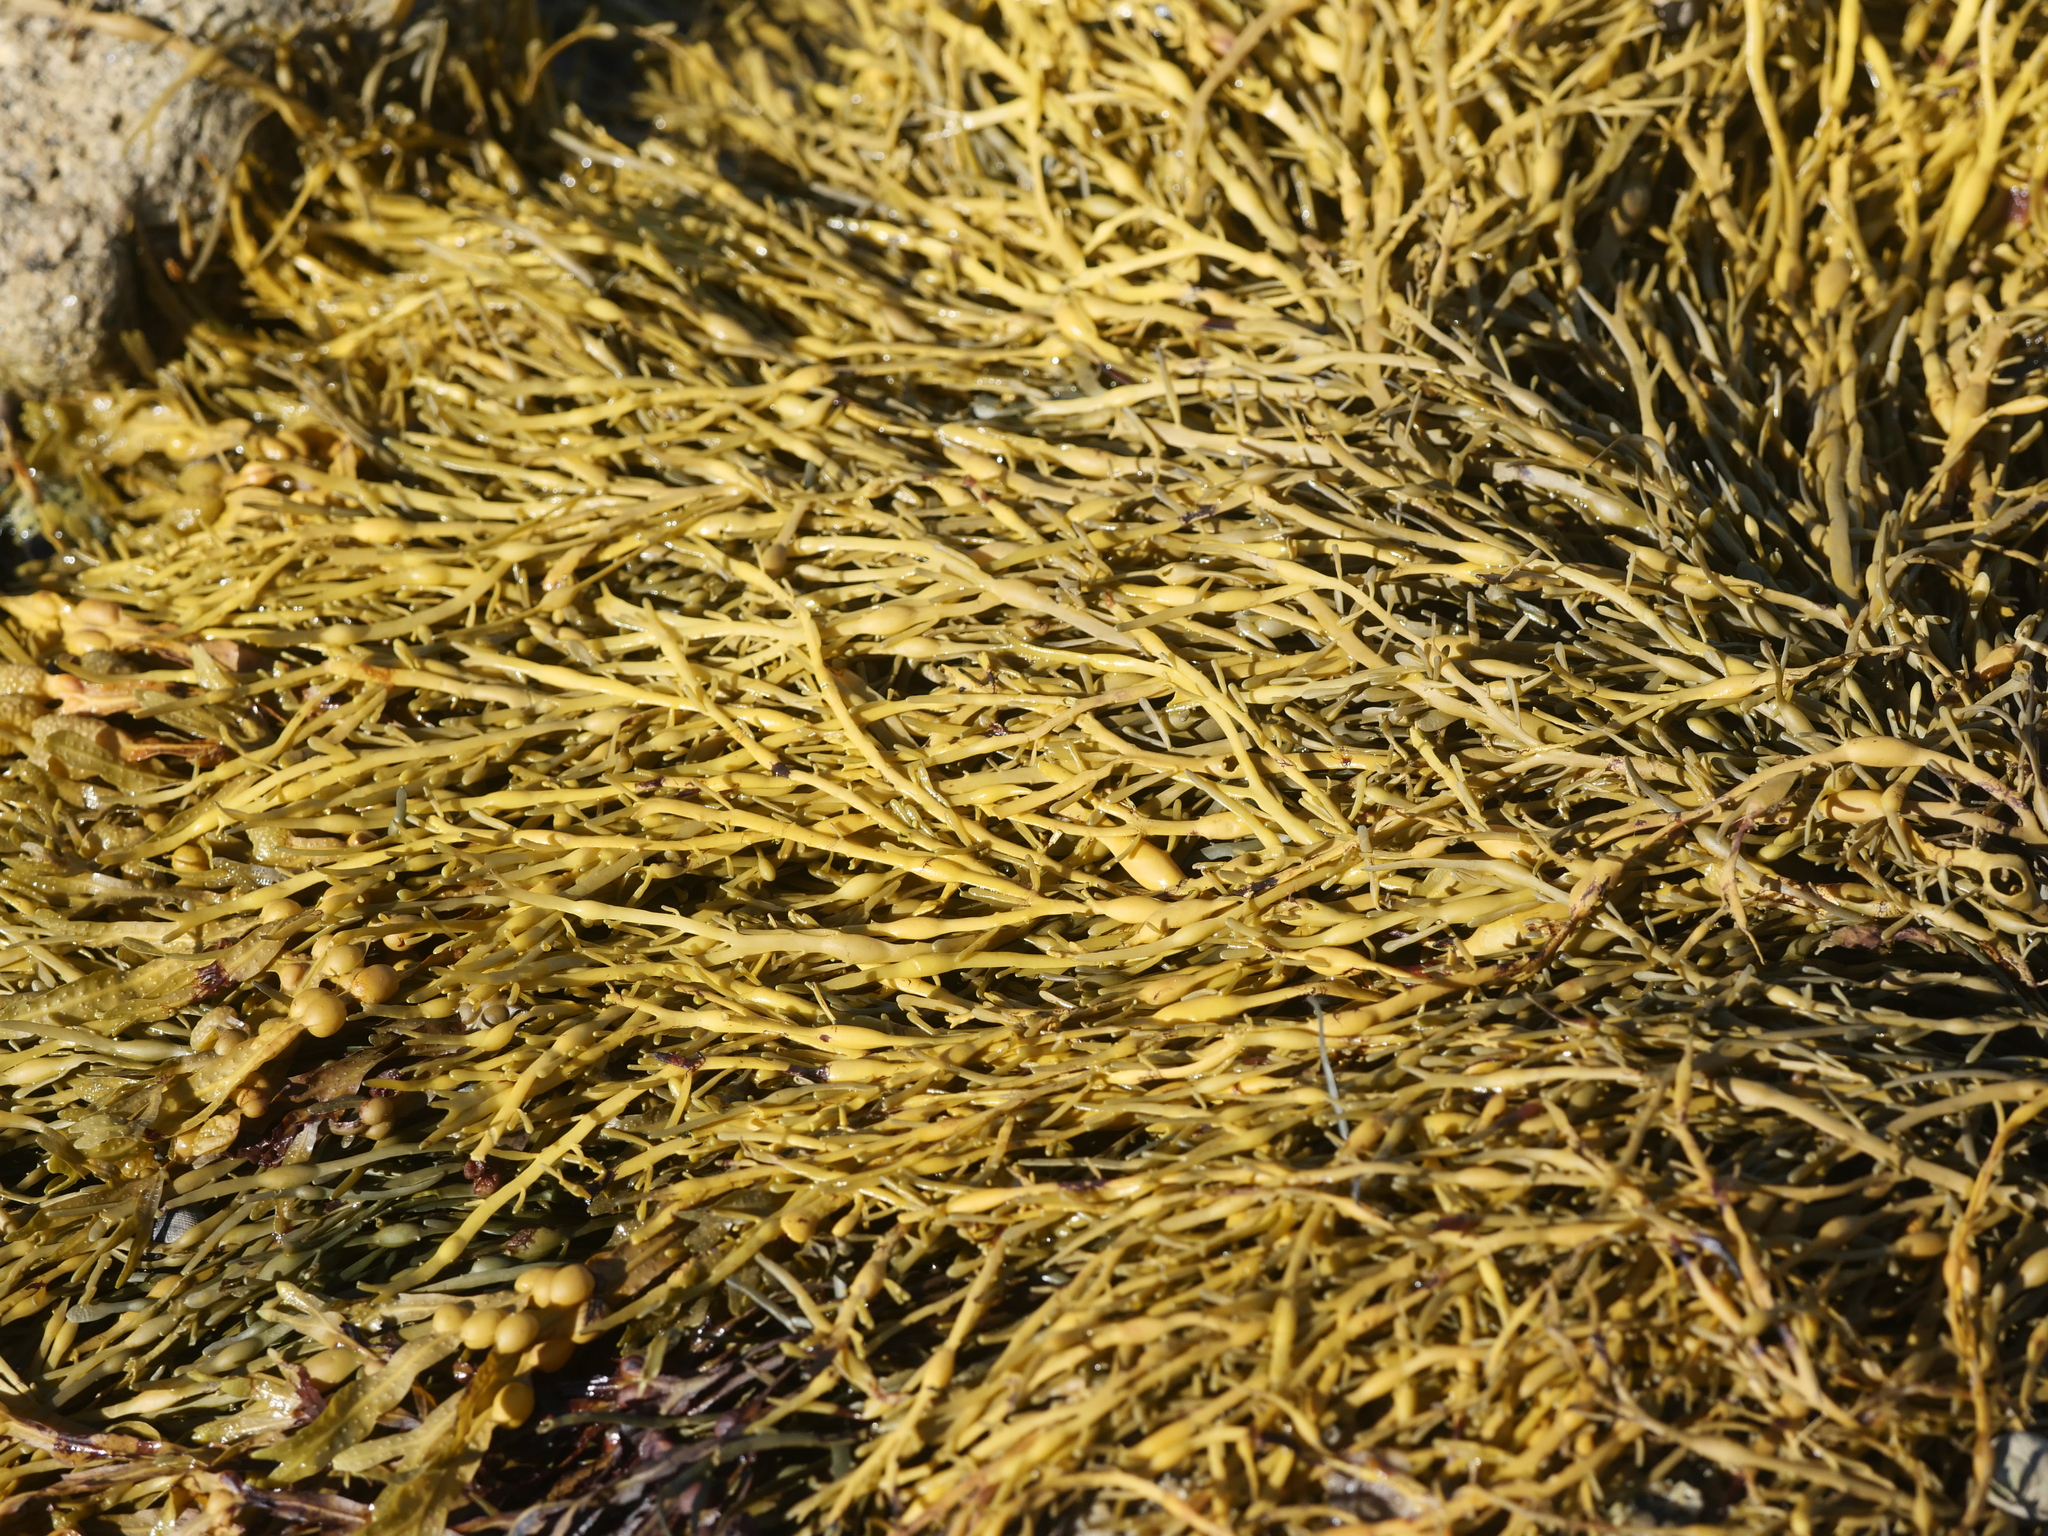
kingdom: Chromista
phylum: Ochrophyta
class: Phaeophyceae
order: Fucales
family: Fucaceae
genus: Ascophyllum
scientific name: Ascophyllum nodosum
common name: Knotted wrack
